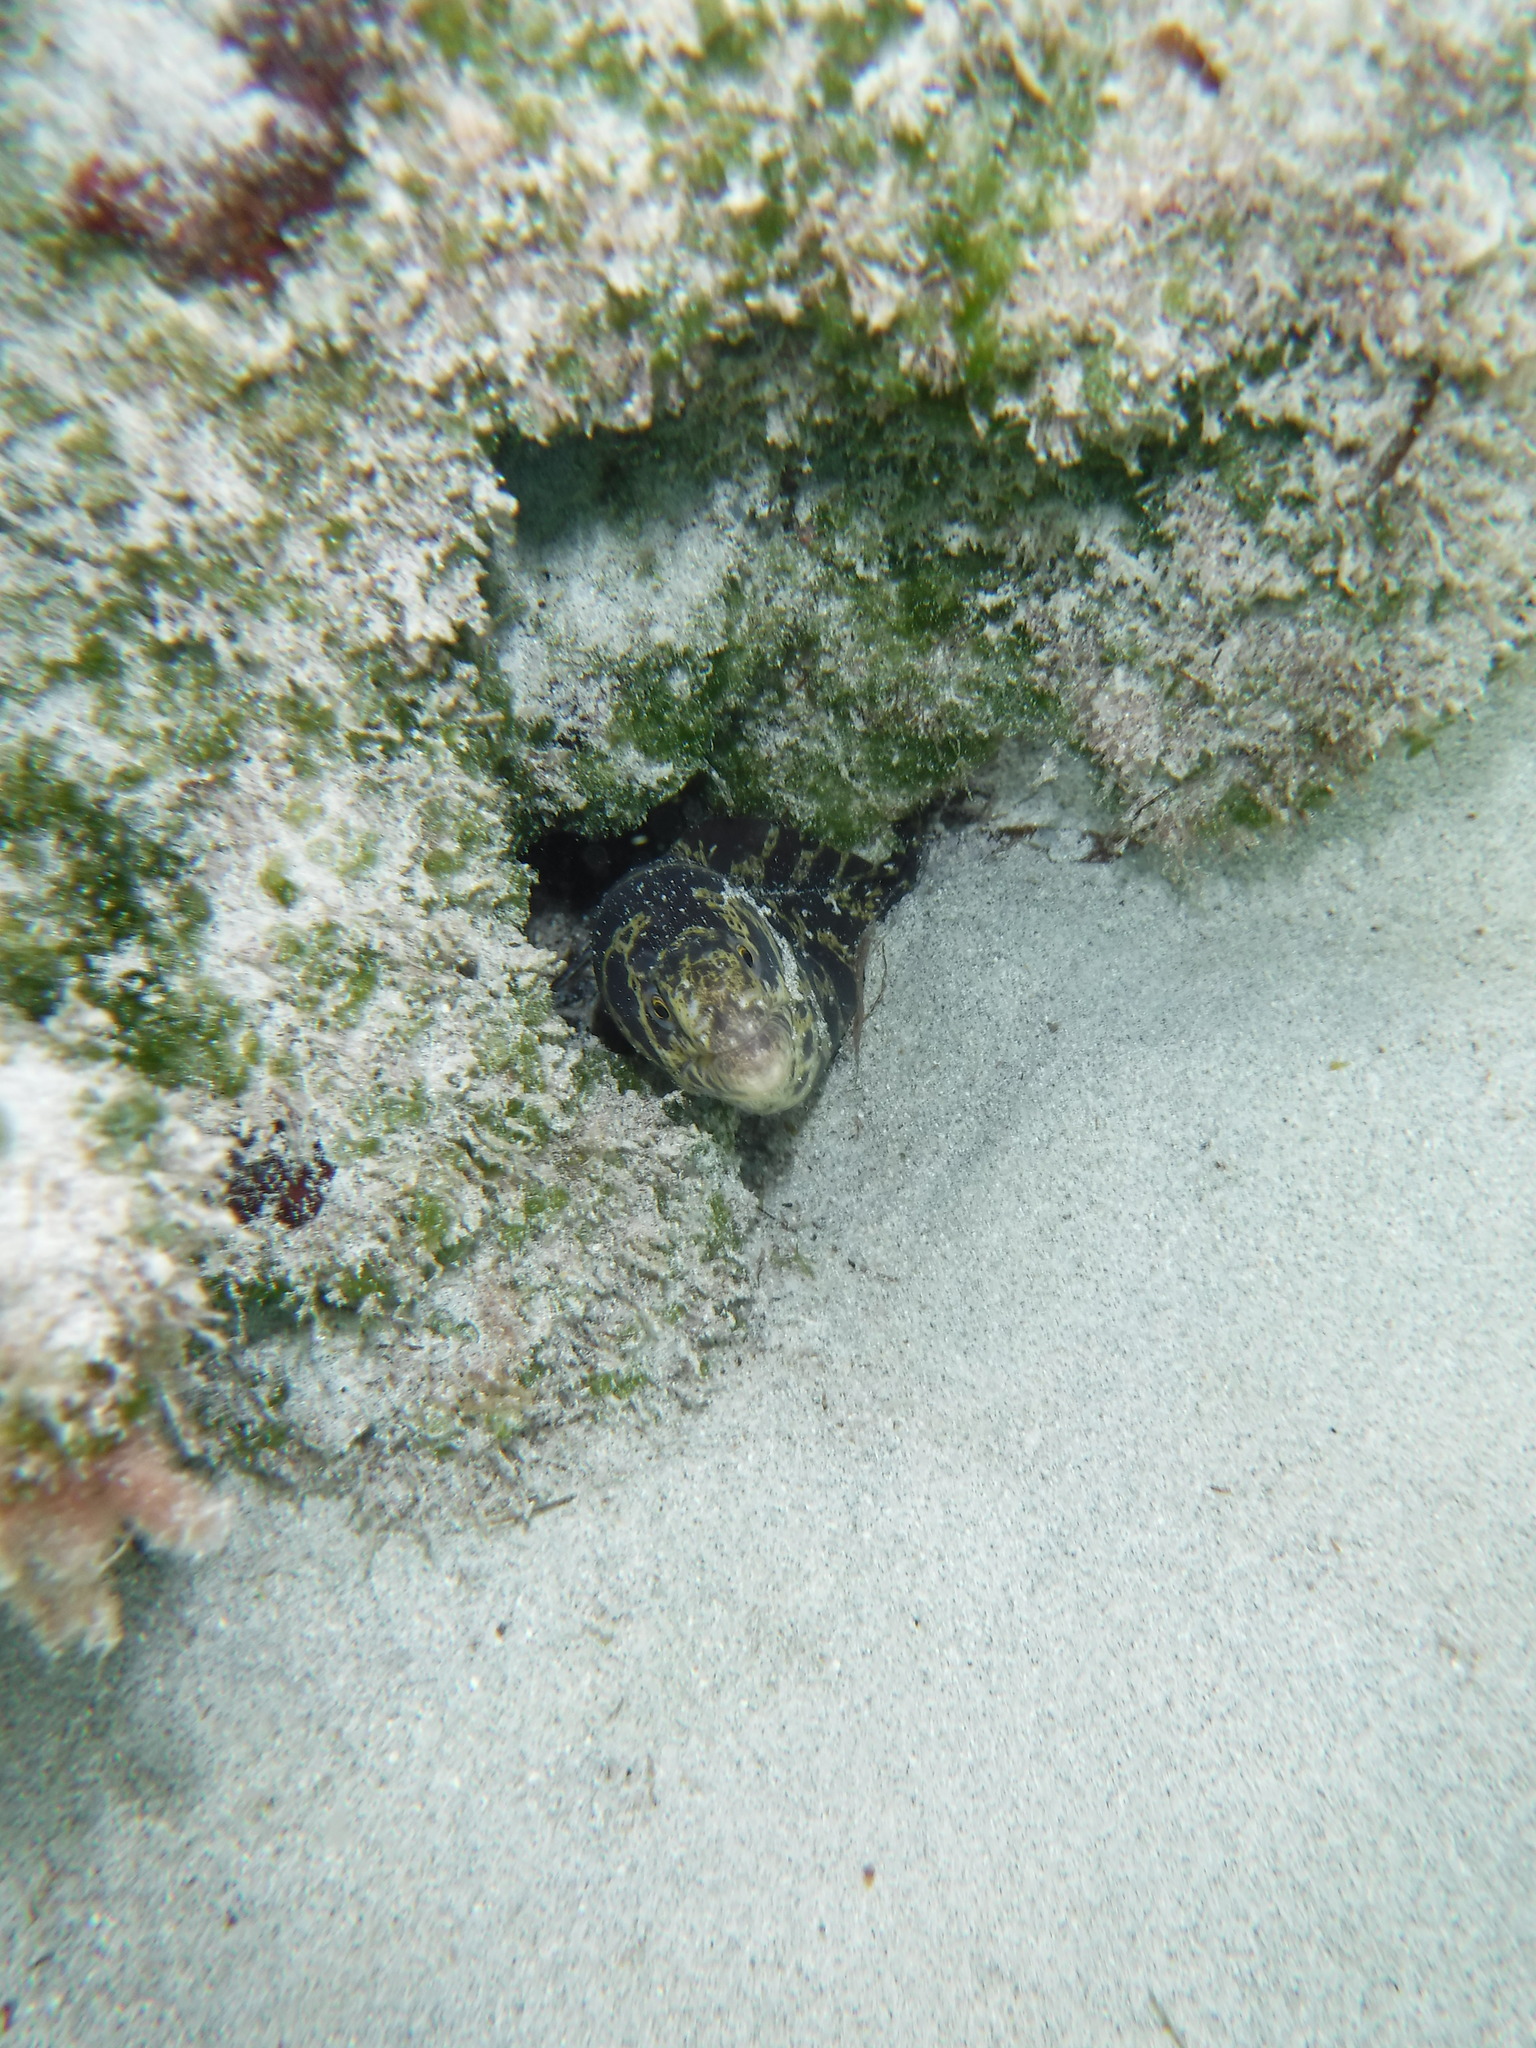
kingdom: Animalia
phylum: Chordata
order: Anguilliformes
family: Muraenidae
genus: Echidna
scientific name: Echidna catenata
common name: Chain moray
